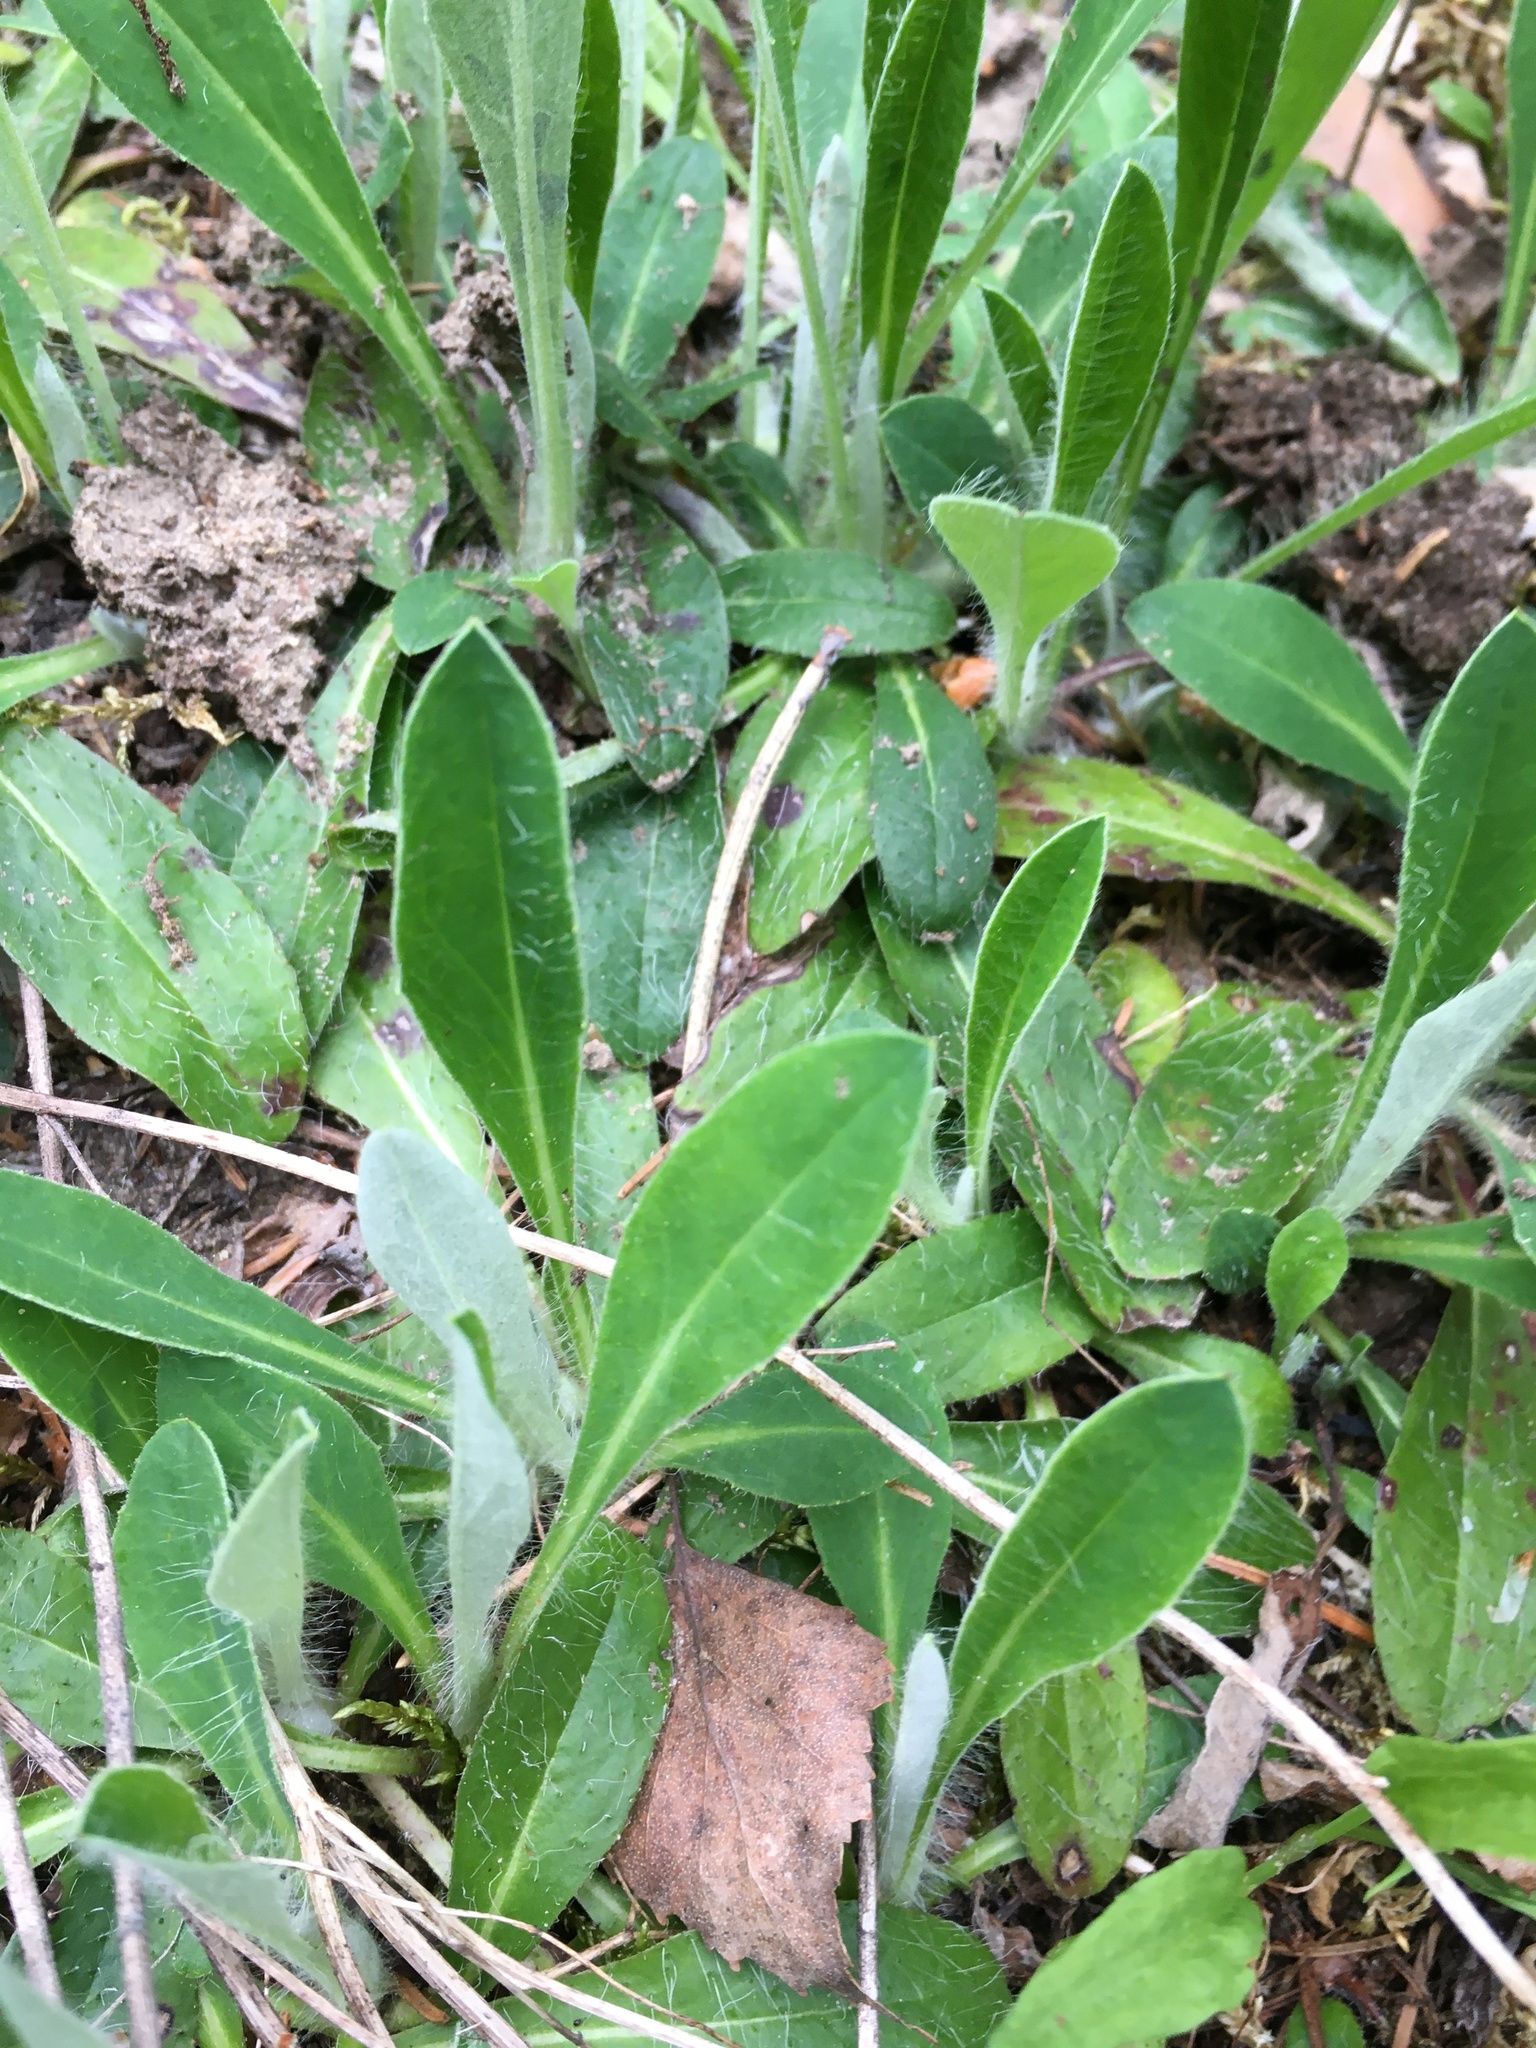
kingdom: Plantae
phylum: Tracheophyta
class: Magnoliopsida
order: Asterales
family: Asteraceae
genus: Pilosella
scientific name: Pilosella officinarum
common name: Mouse-ear hawkweed
